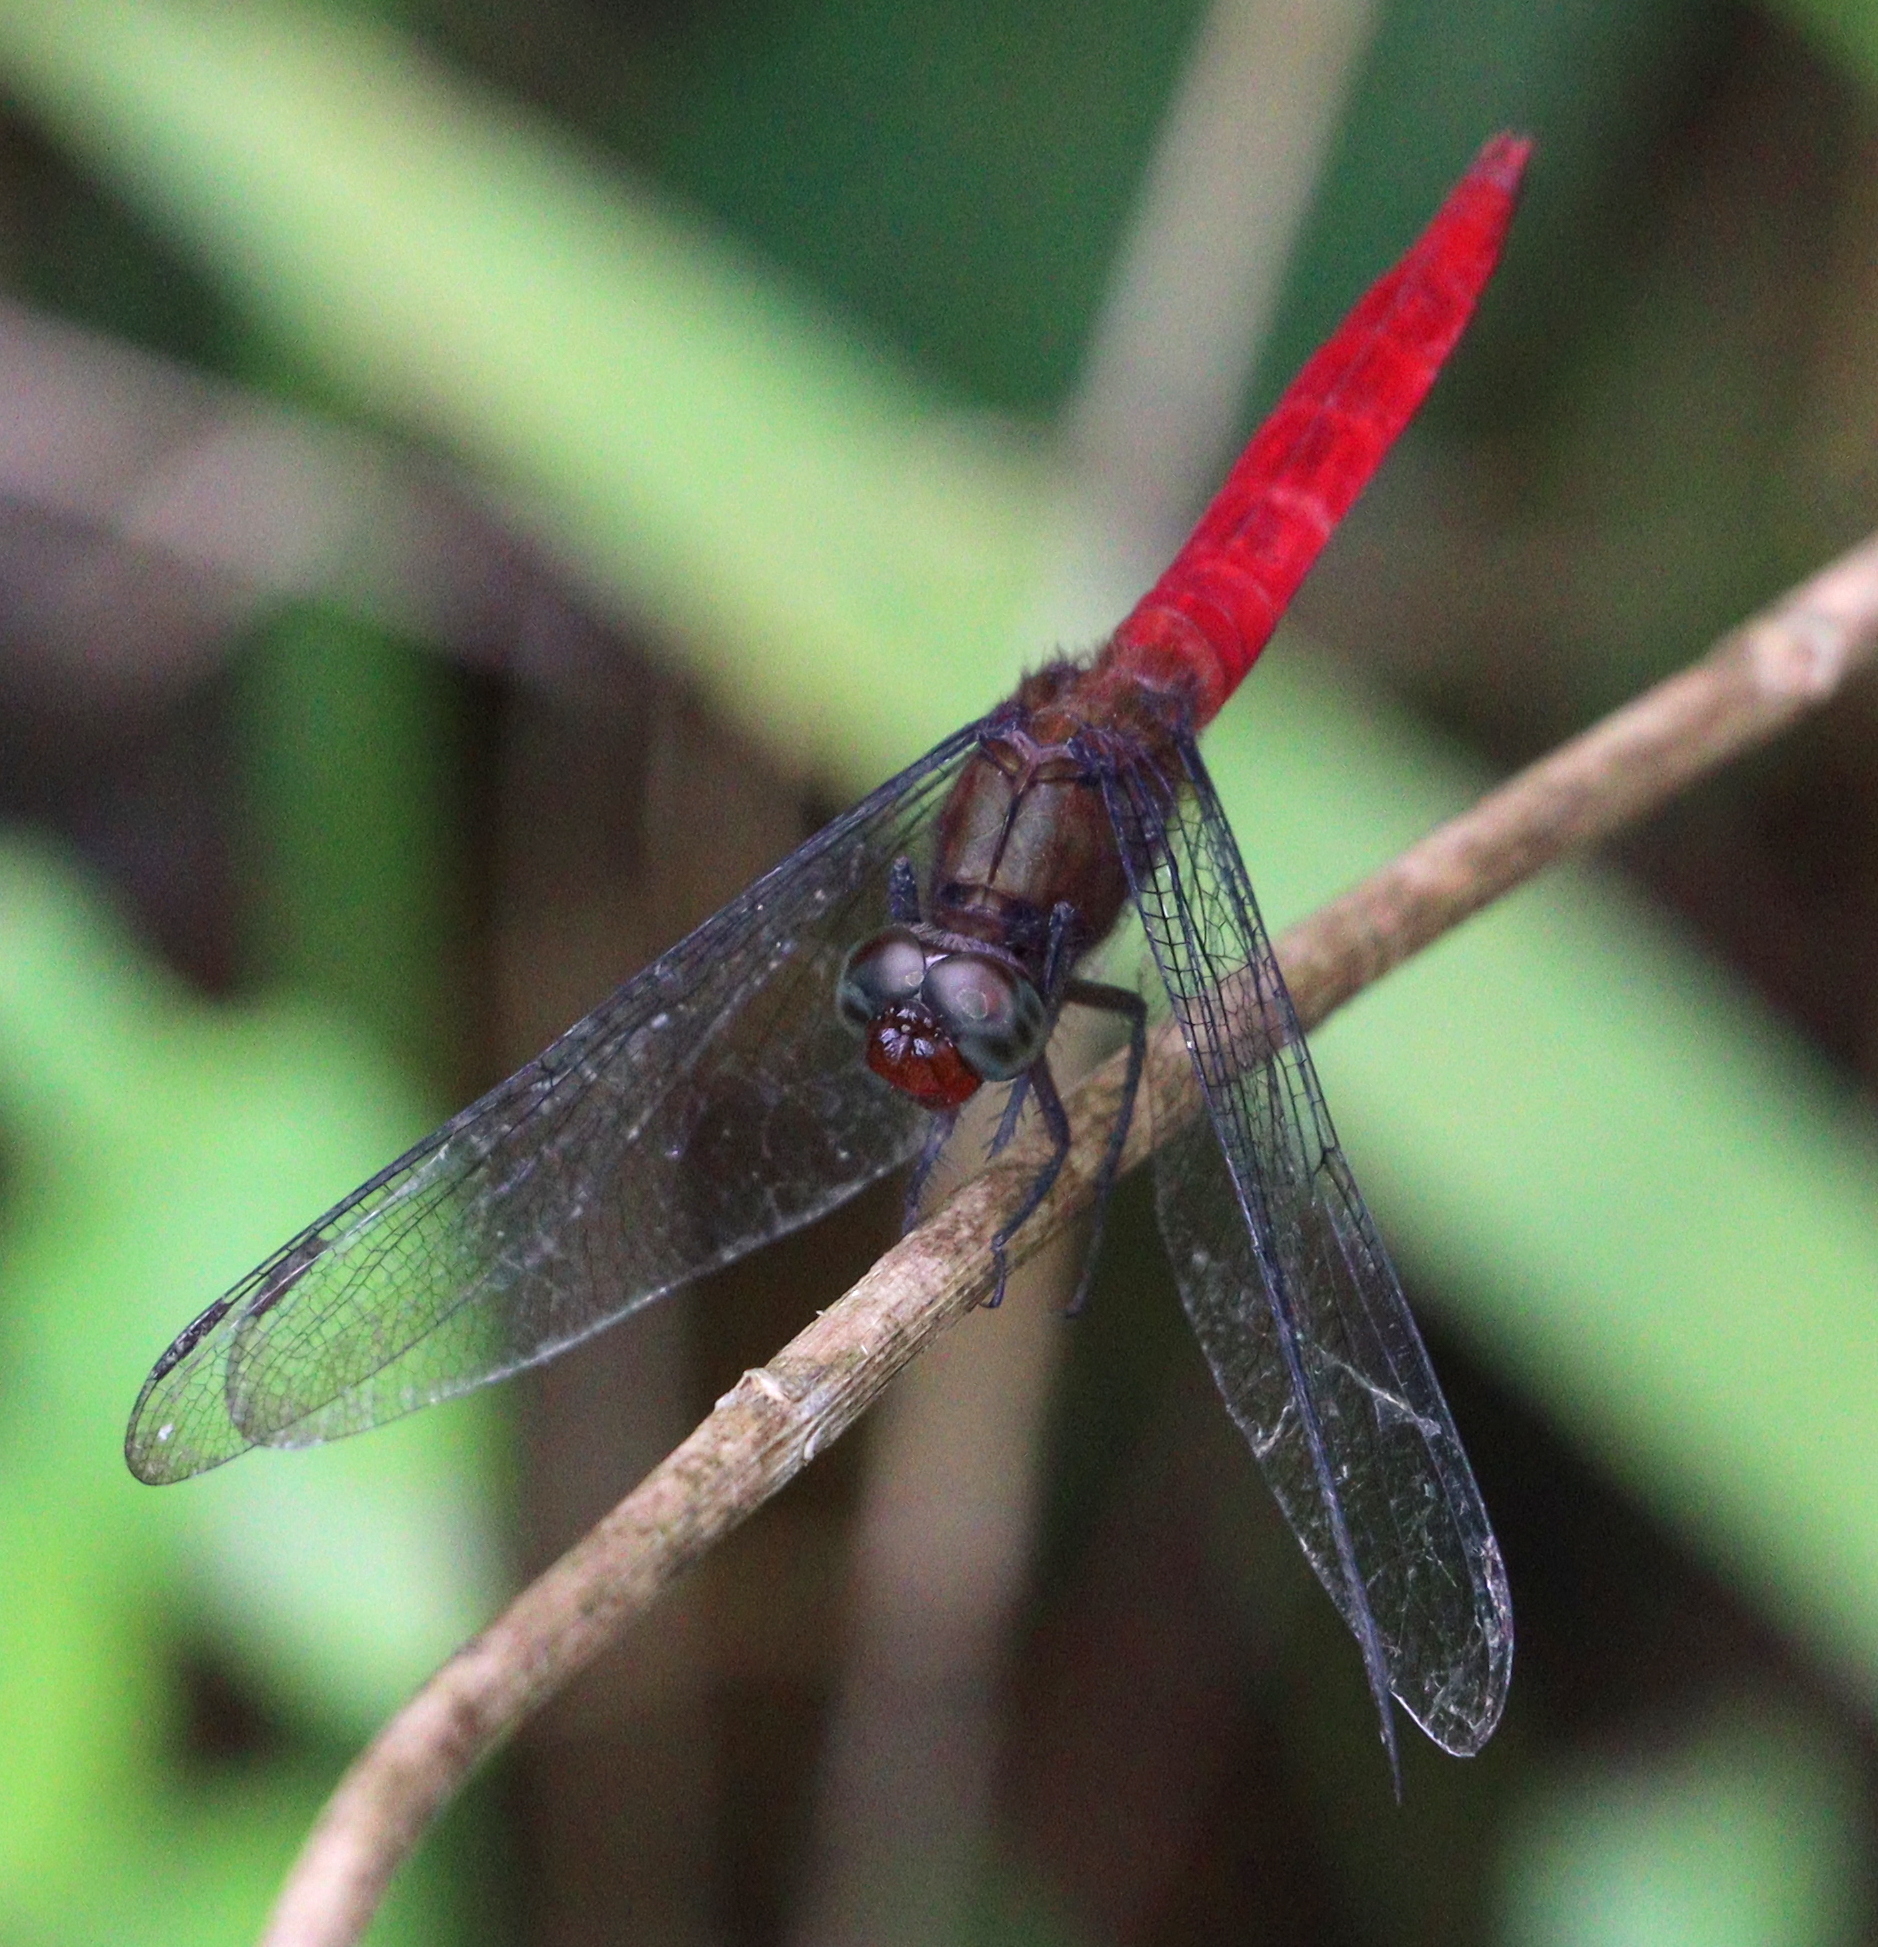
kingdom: Animalia
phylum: Arthropoda
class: Insecta
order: Odonata
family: Libellulidae
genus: Orthetrum
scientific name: Orthetrum chrysis
